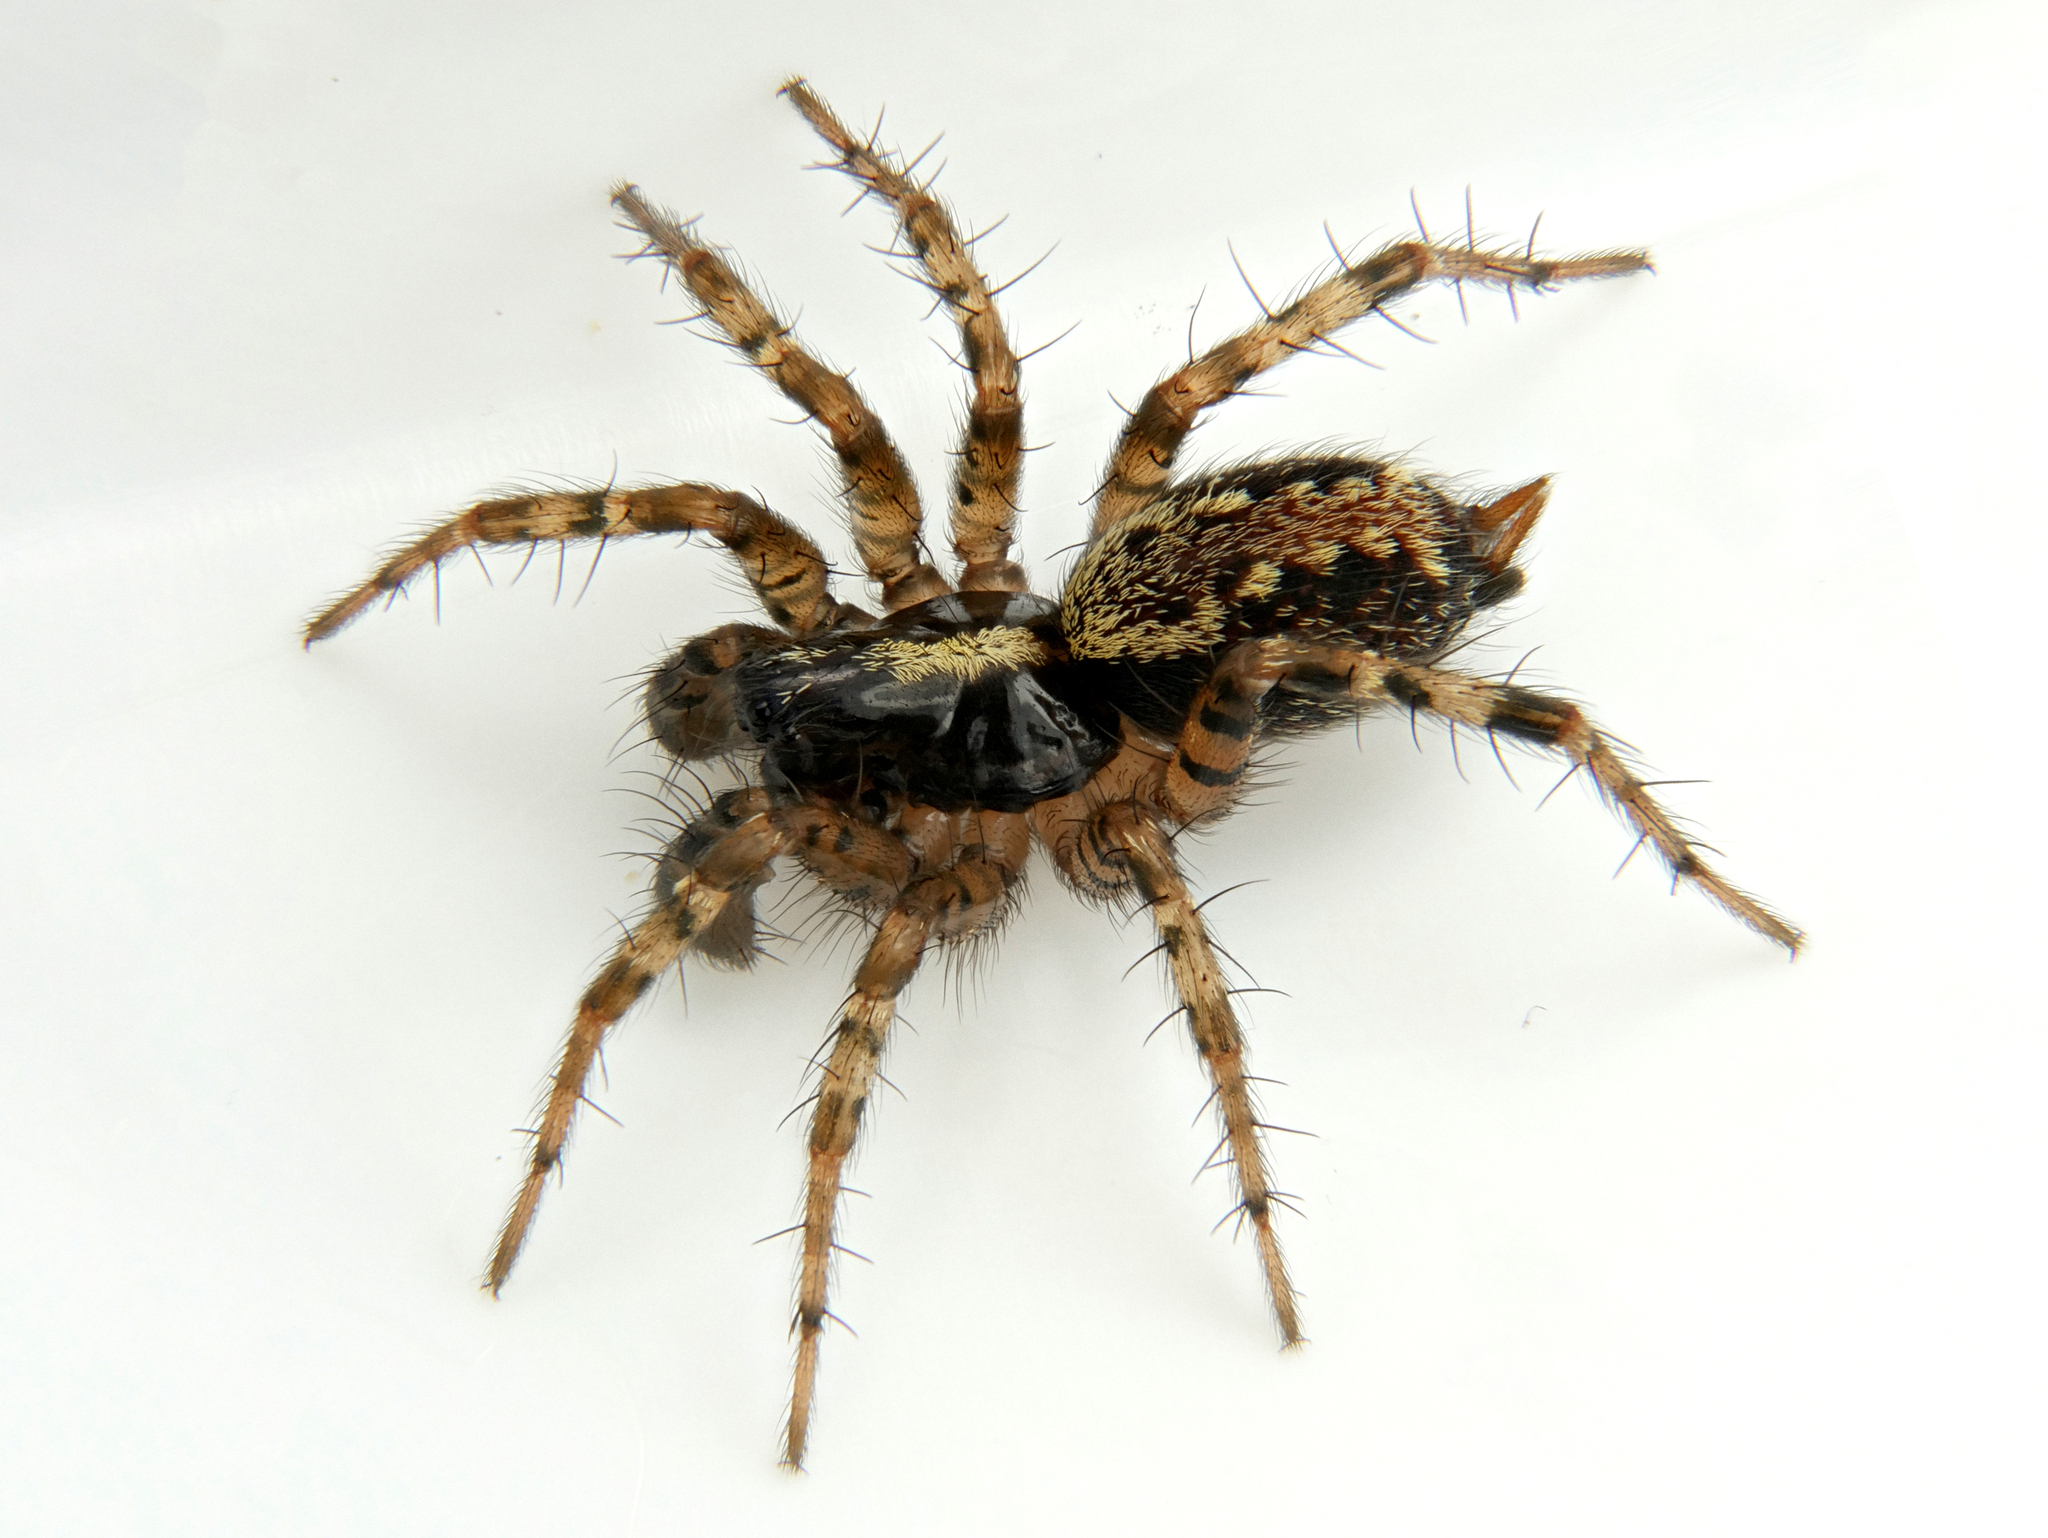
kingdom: Animalia
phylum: Arthropoda
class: Arachnida
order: Araneae
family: Agelenidae
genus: Textrix
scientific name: Textrix denticulata
